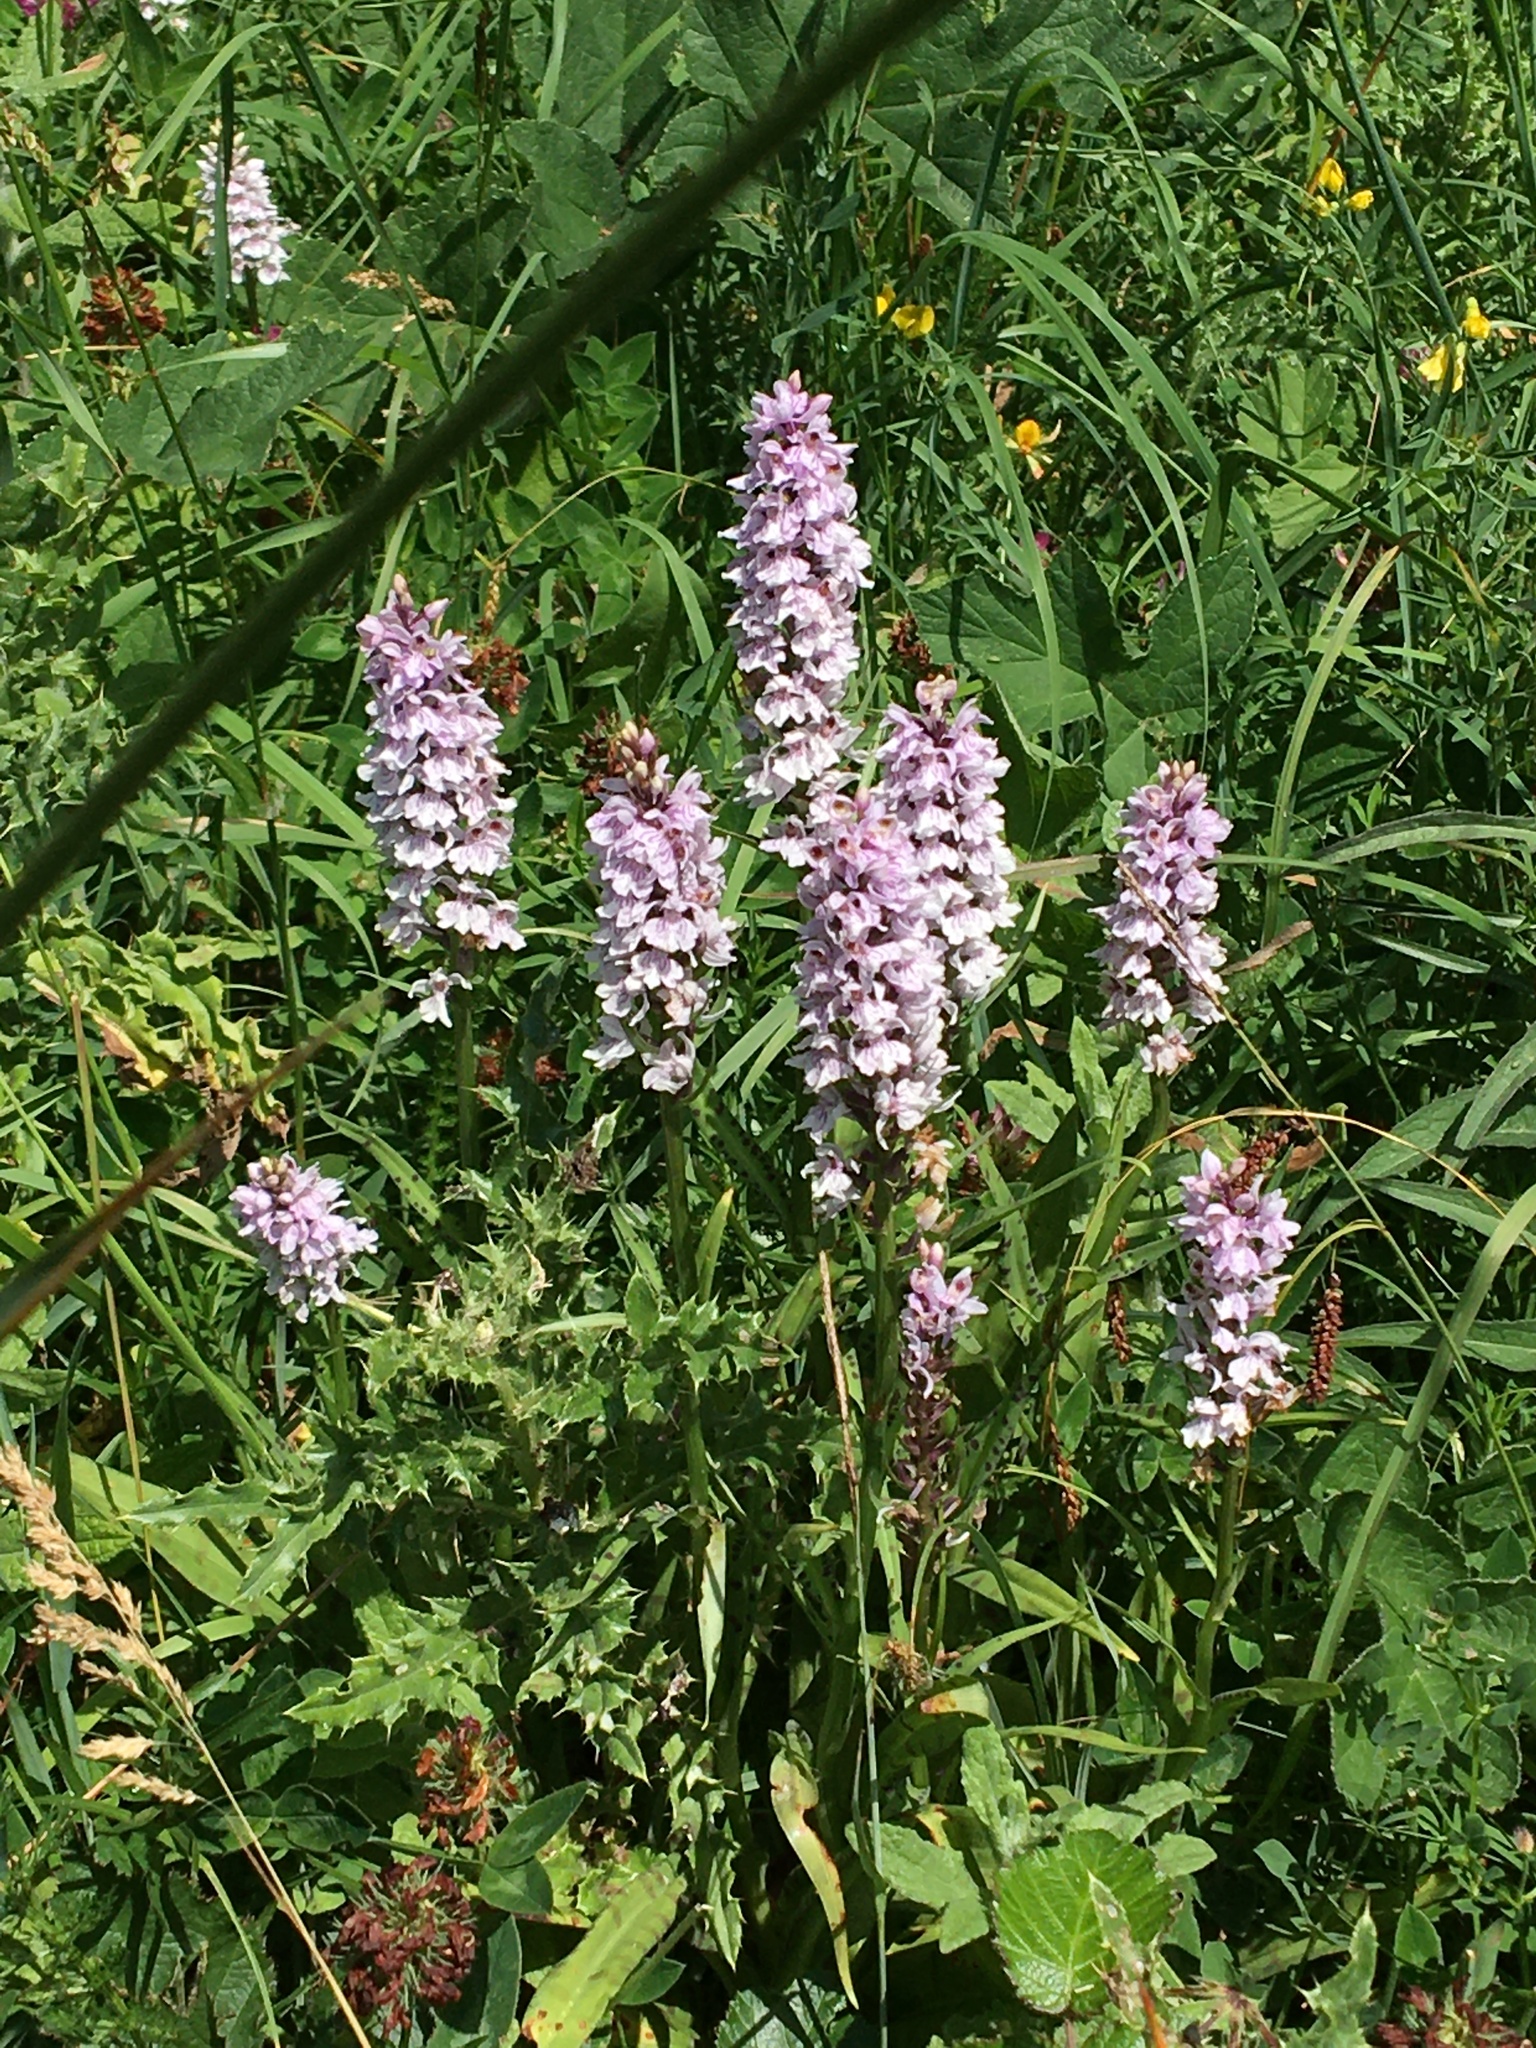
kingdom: Plantae
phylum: Tracheophyta
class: Liliopsida
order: Asparagales
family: Orchidaceae
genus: Dactylorhiza
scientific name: Dactylorhiza maculata
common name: Heath spotted-orchid
